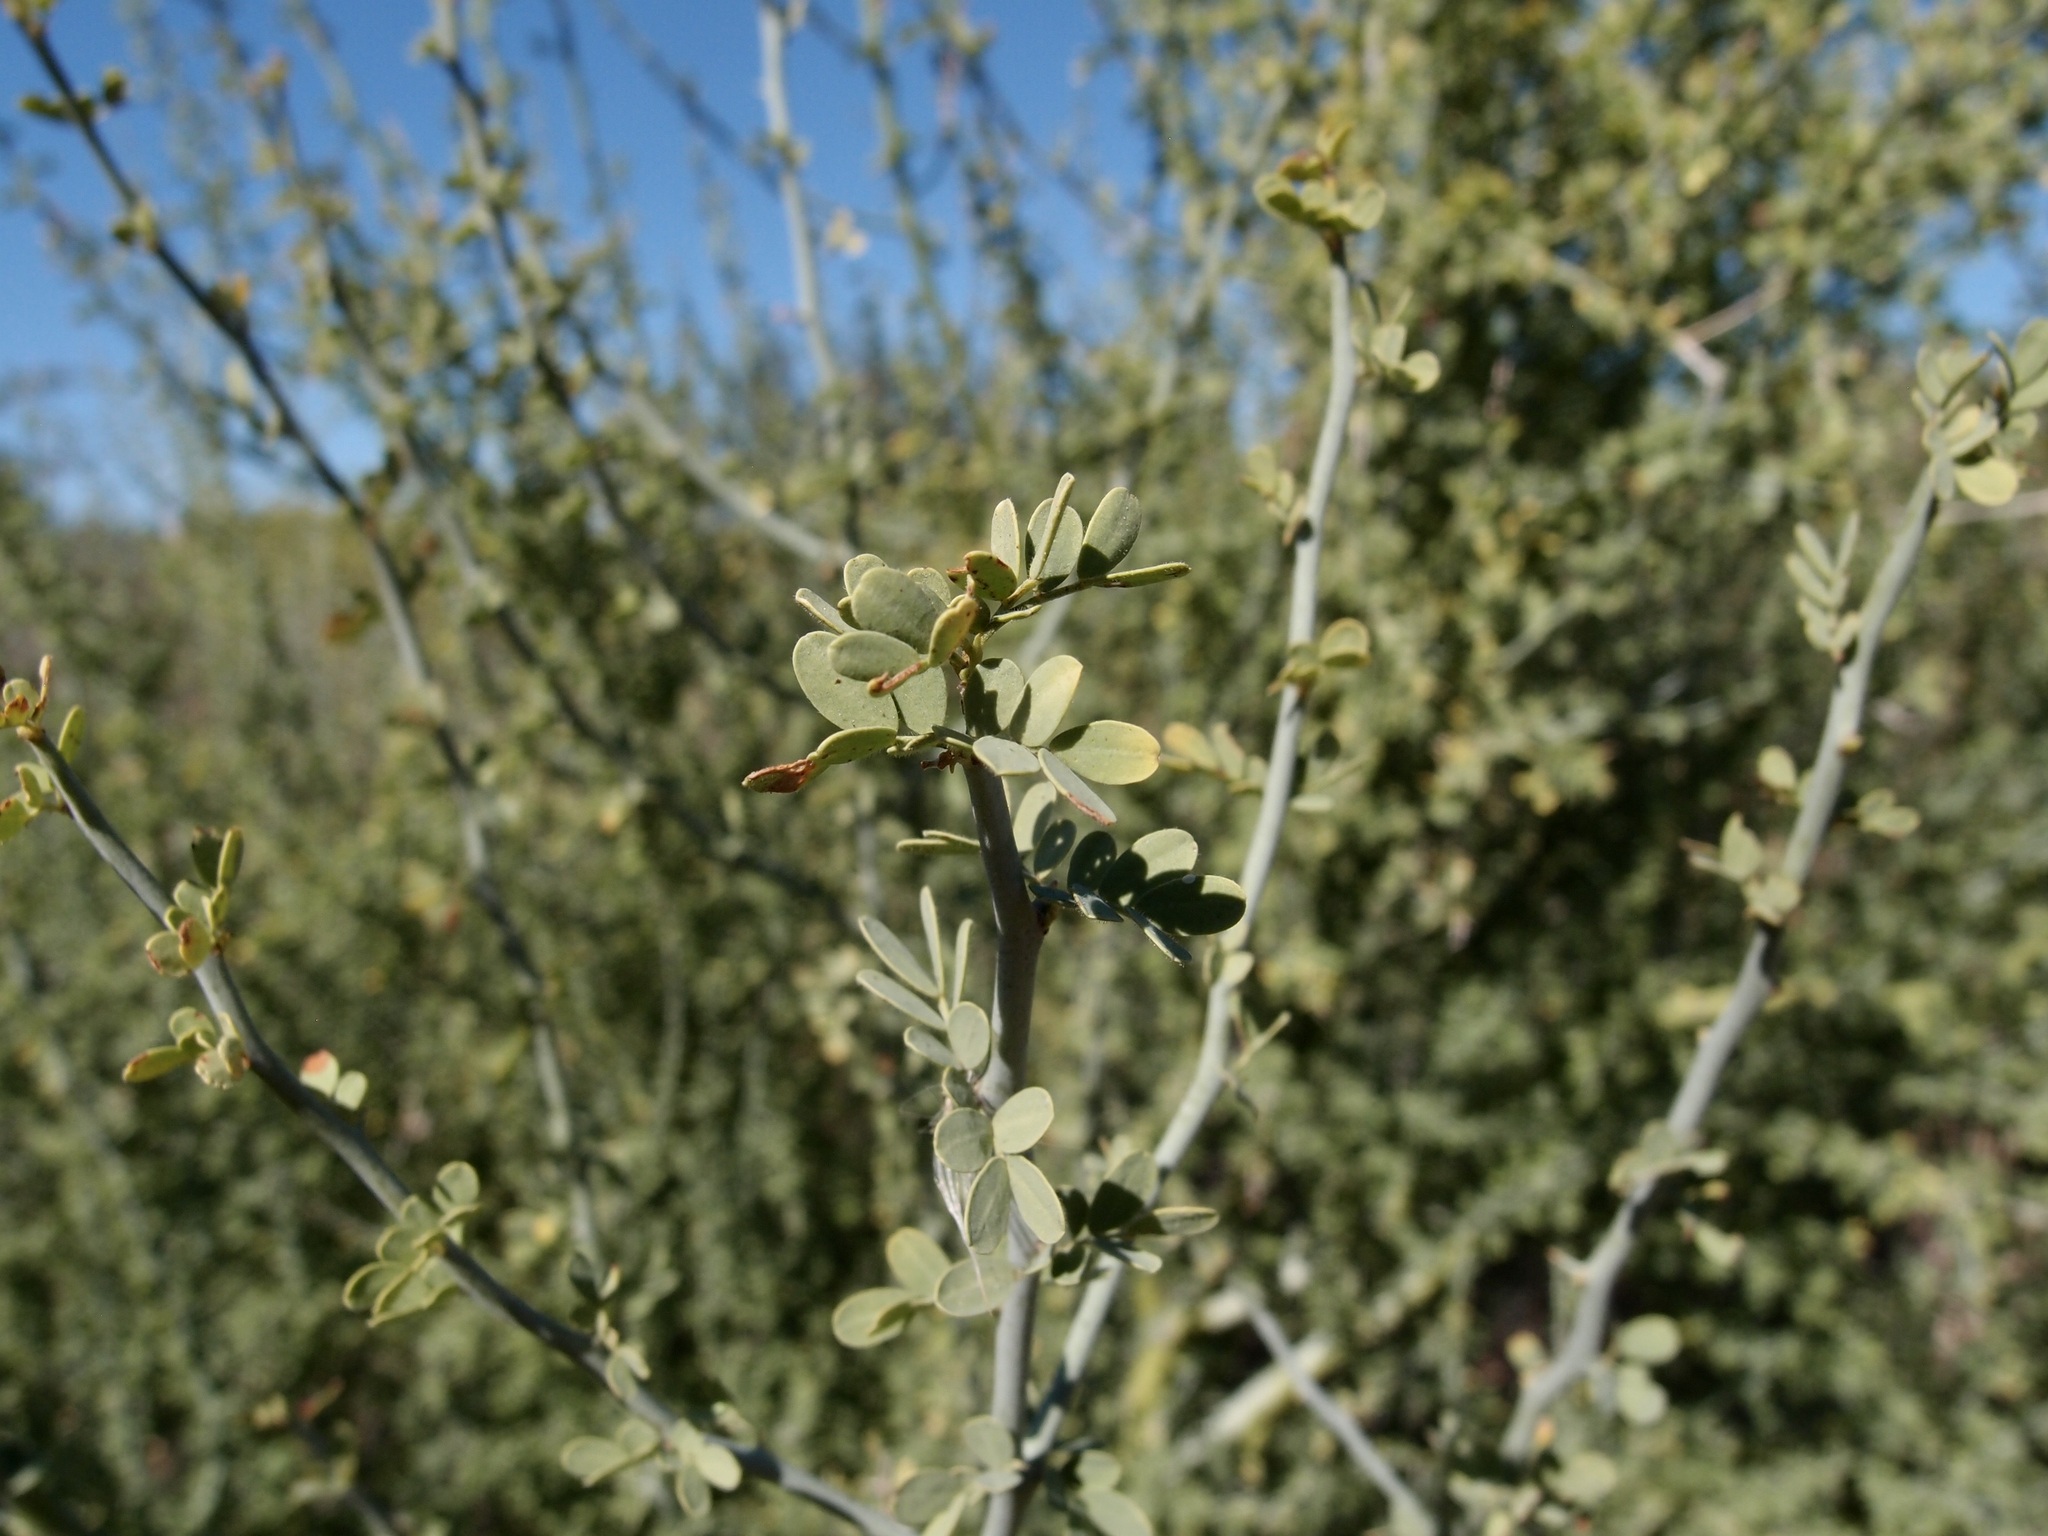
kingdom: Plantae
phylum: Tracheophyta
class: Magnoliopsida
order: Fabales
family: Fabaceae
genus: Parkinsonia
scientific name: Parkinsonia florida
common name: Blue paloverde
